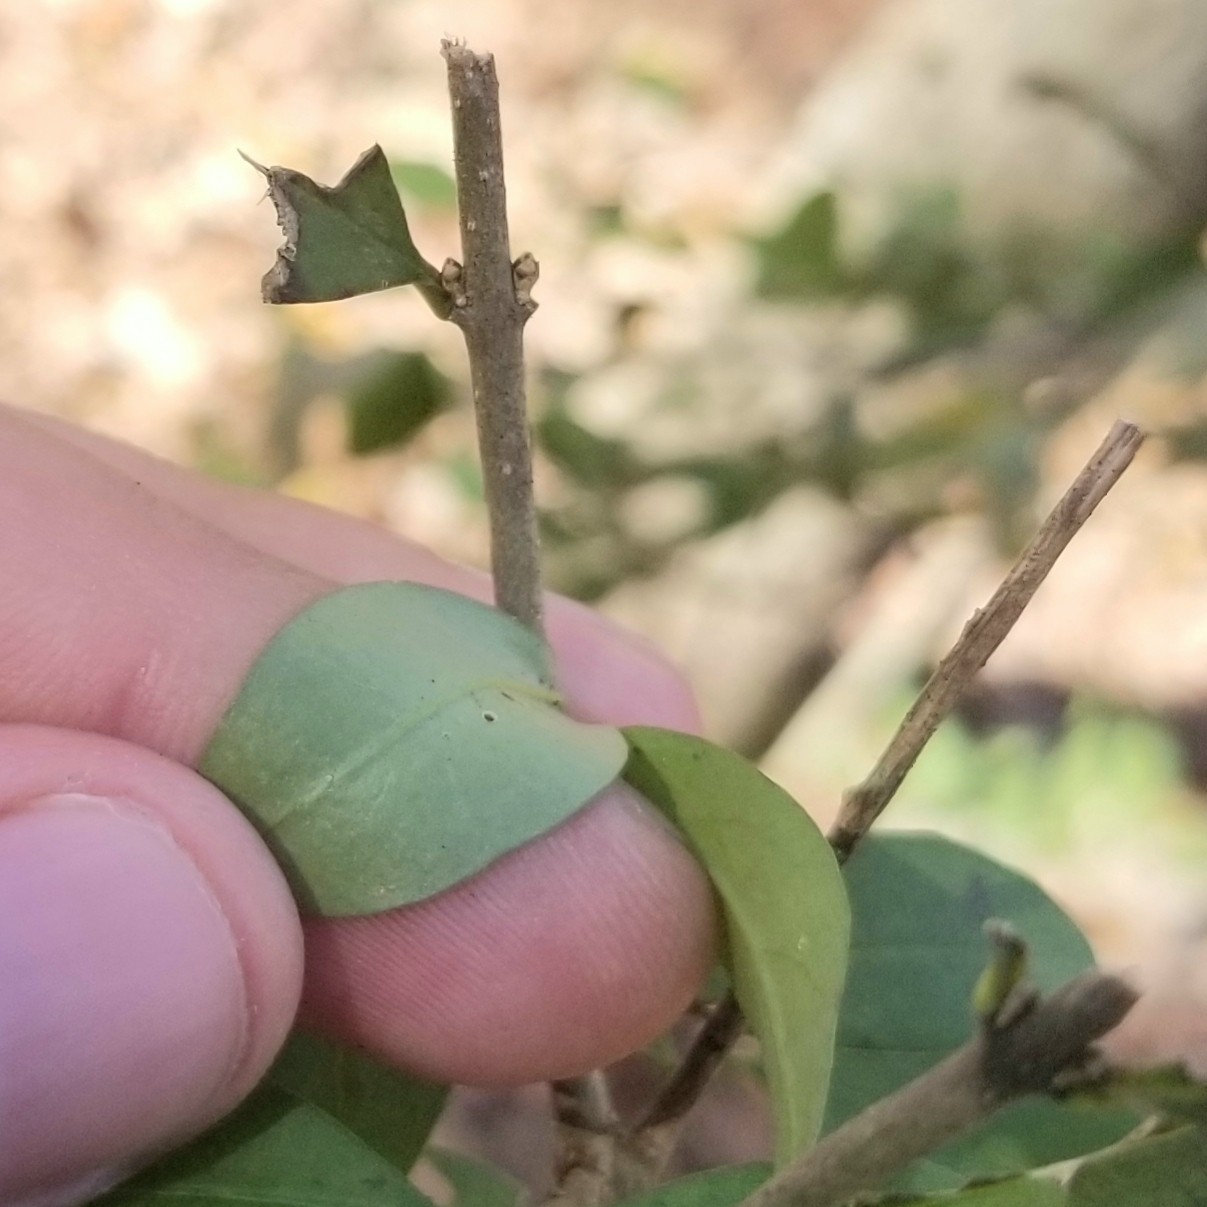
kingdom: Plantae
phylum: Tracheophyta
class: Magnoliopsida
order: Lamiales
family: Oleaceae
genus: Ligustrum
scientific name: Ligustrum
